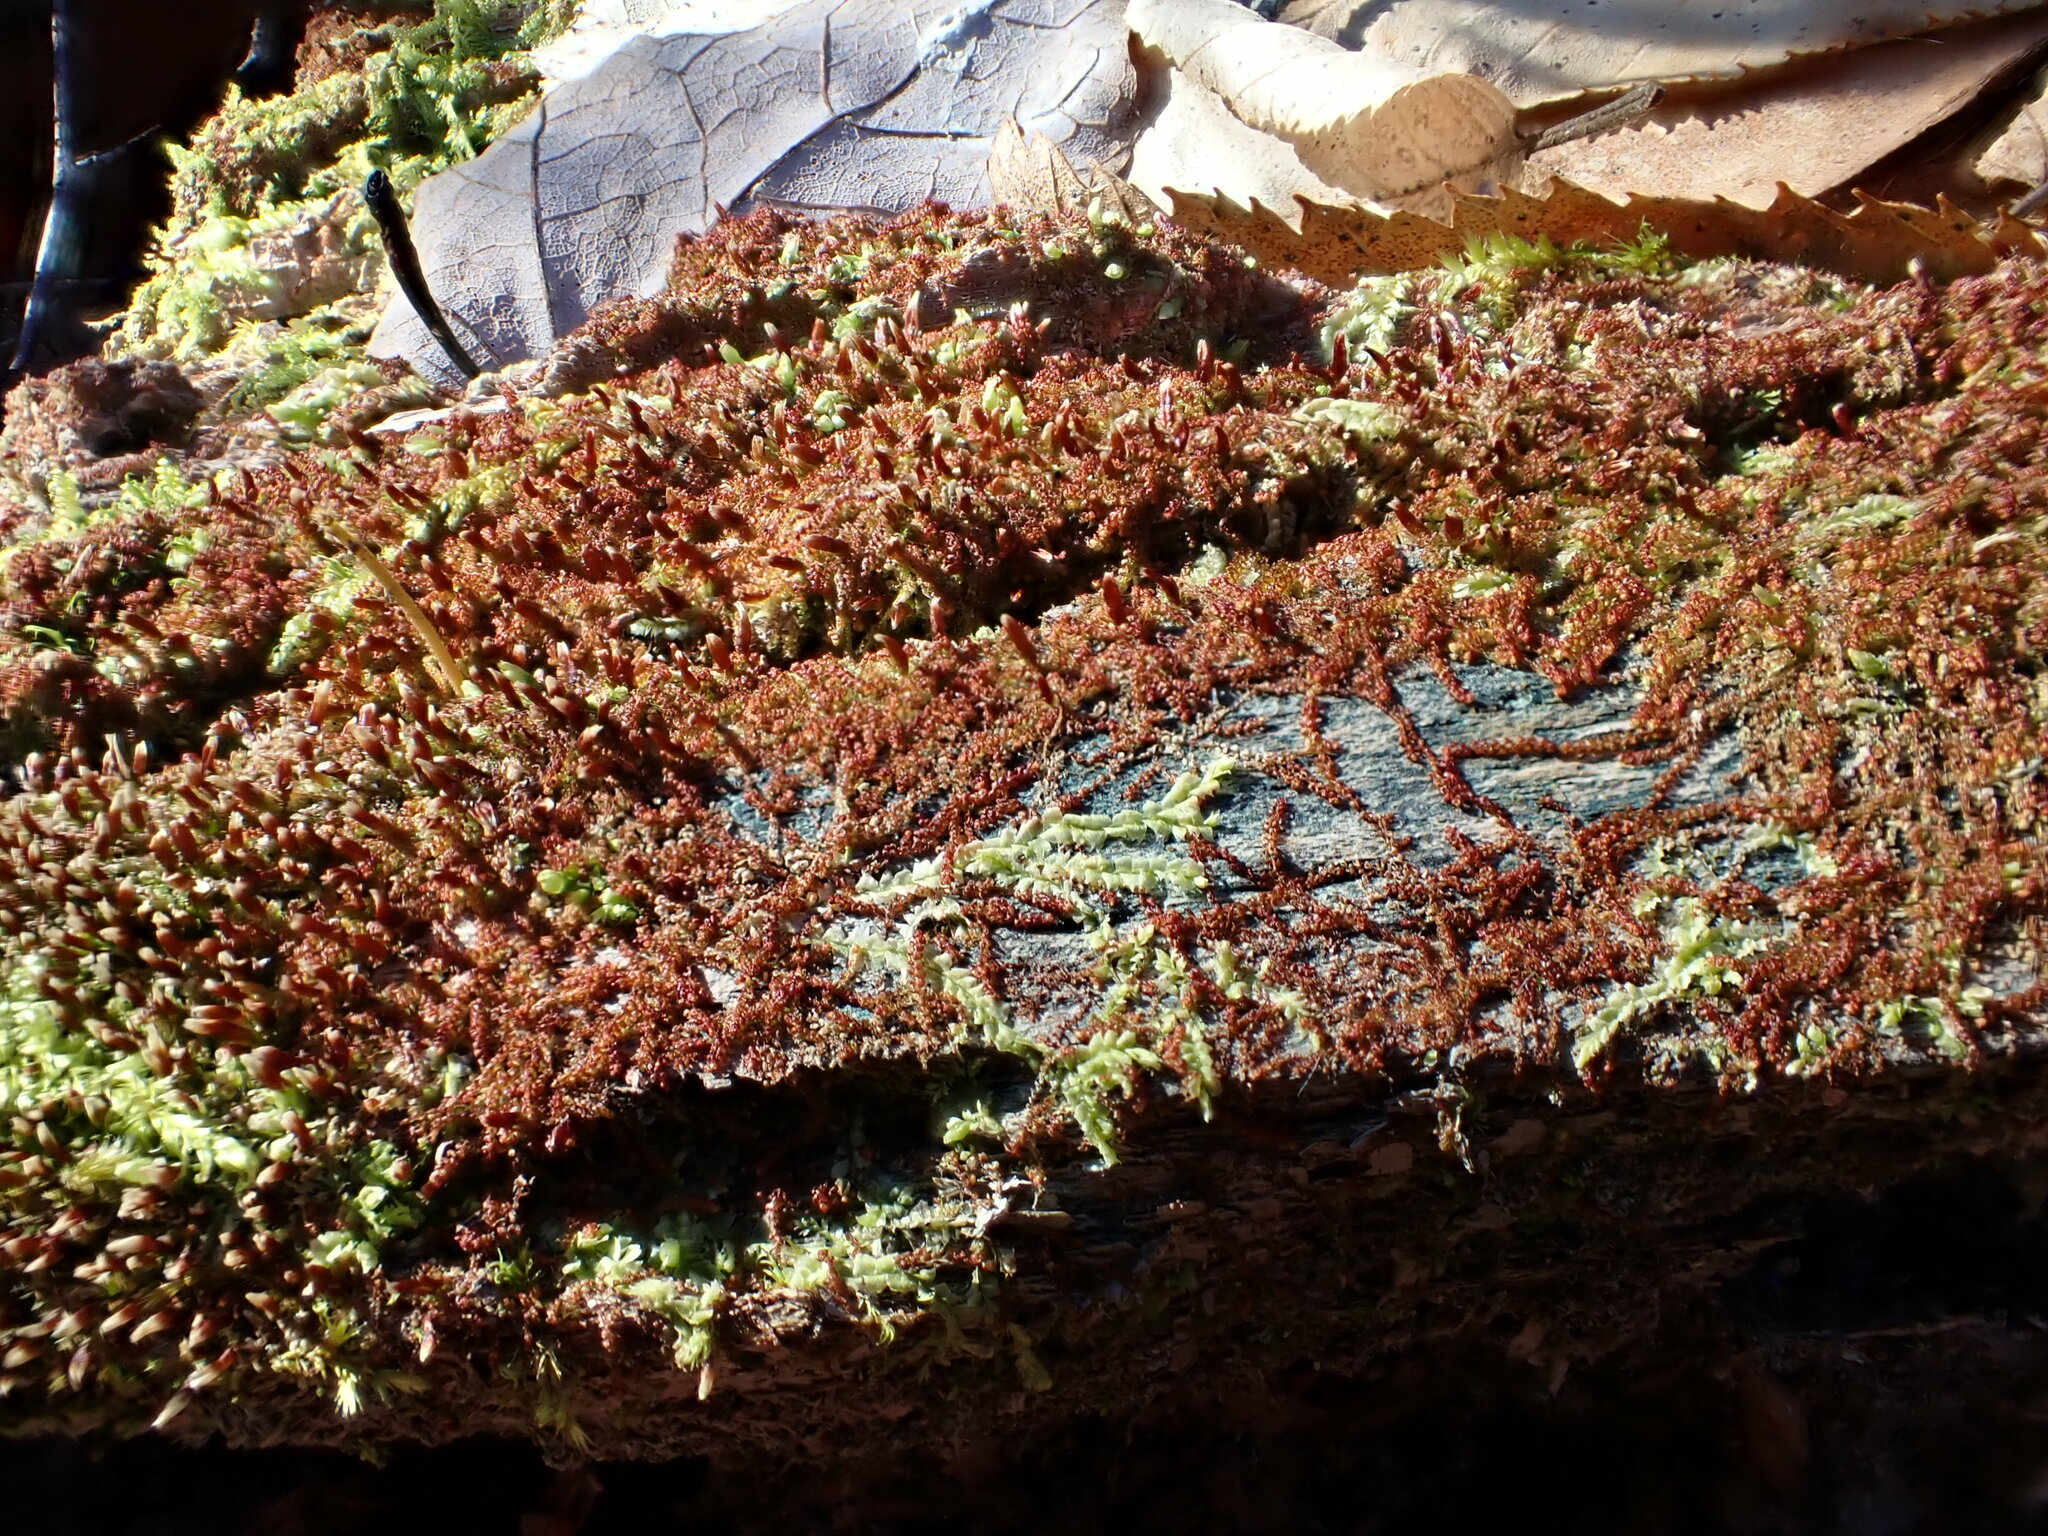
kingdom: Plantae
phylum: Marchantiophyta
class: Jungermanniopsida
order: Jungermanniales
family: Cephaloziaceae
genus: Nowellia
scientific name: Nowellia curvifolia
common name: Wood rustwort
